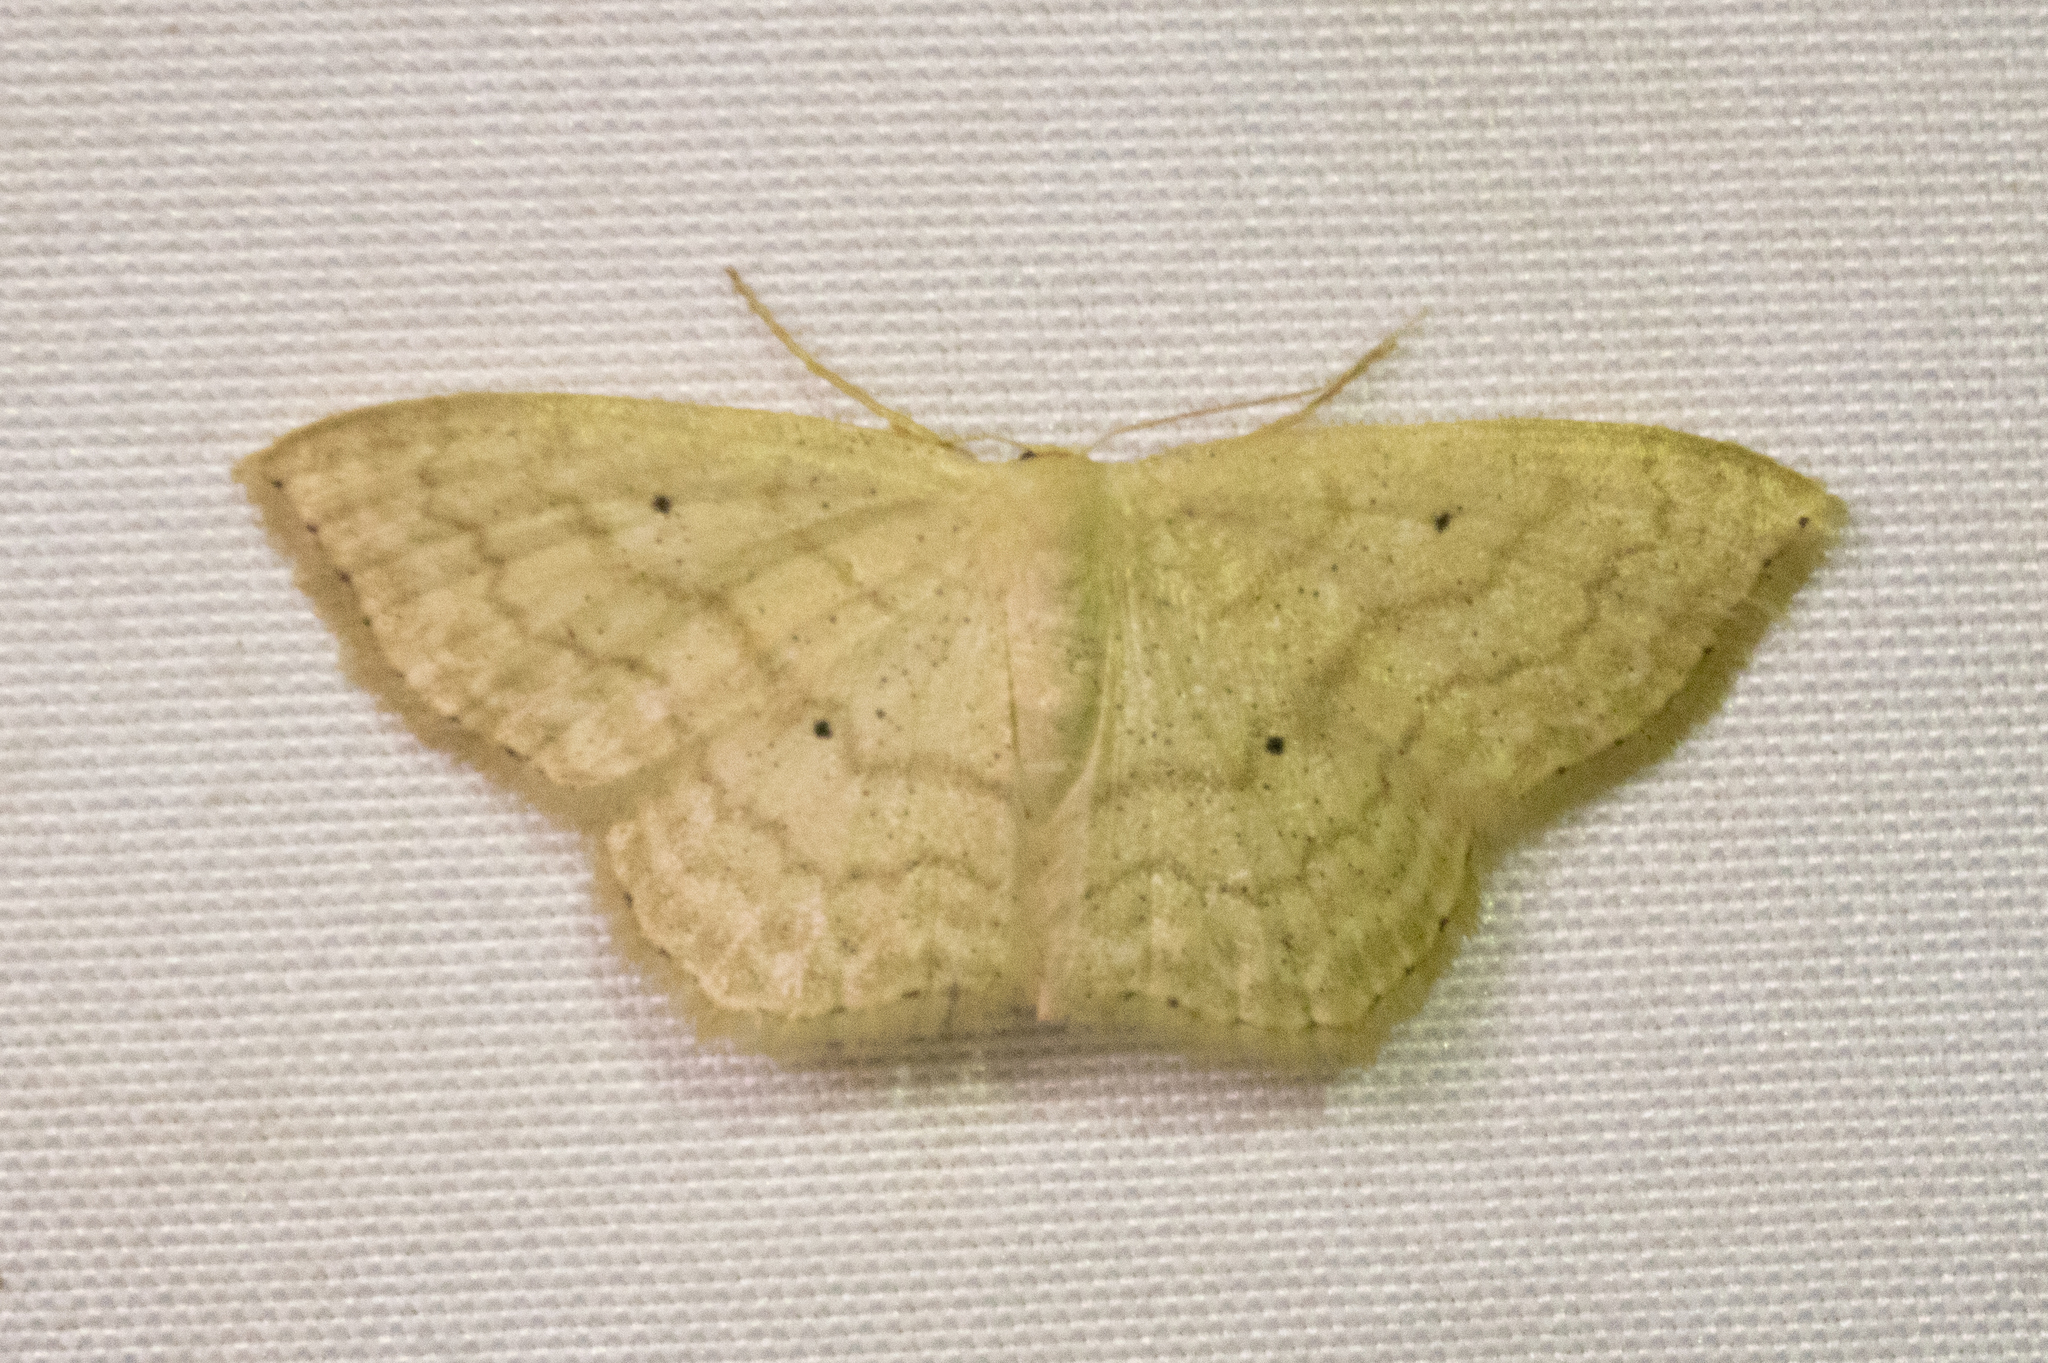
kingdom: Animalia
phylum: Arthropoda
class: Insecta
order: Lepidoptera
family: Geometridae
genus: Scopula
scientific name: Scopula limboundata
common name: Large lace border
